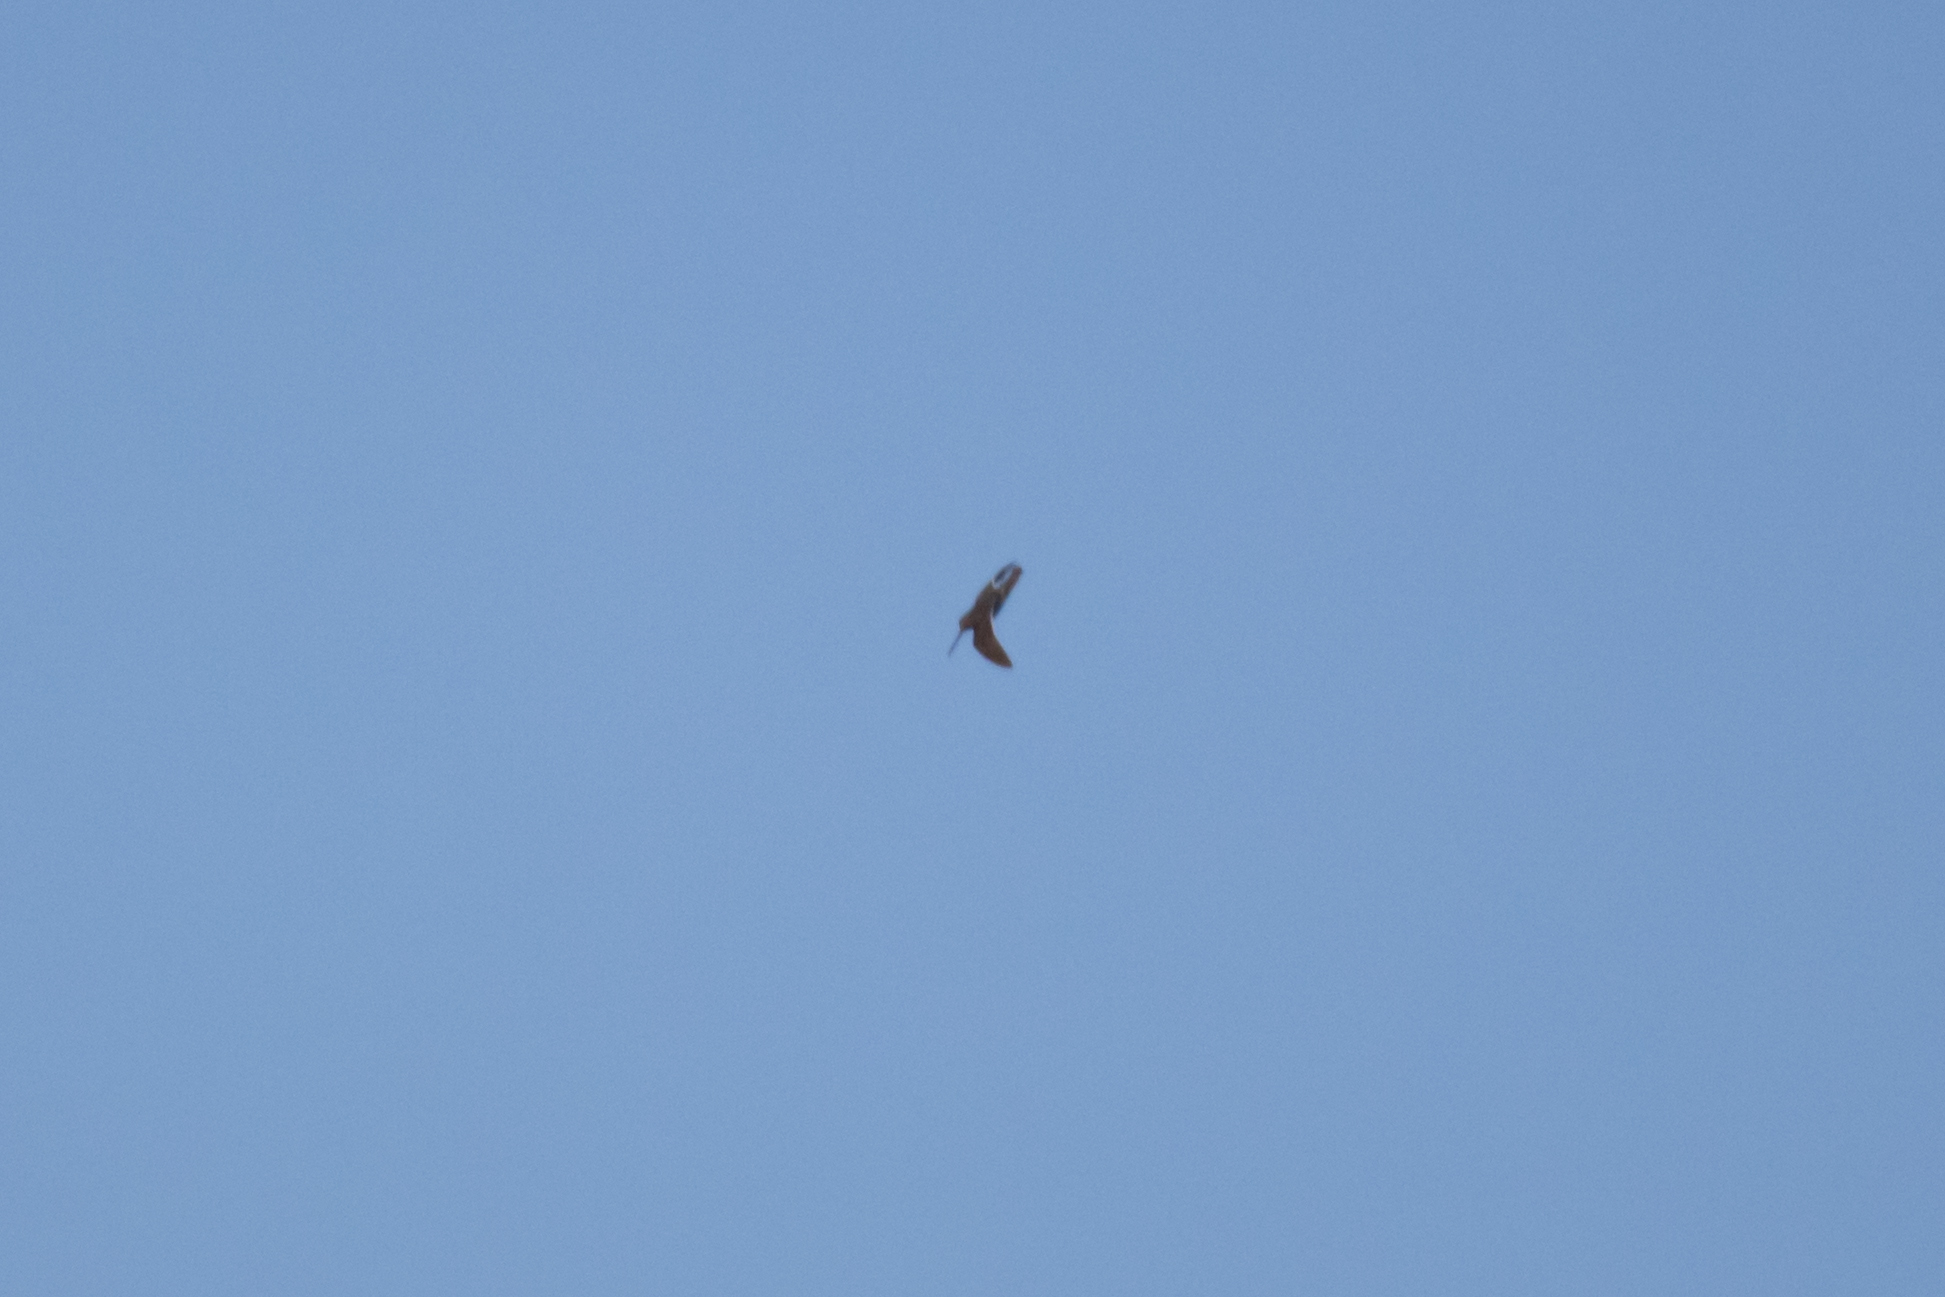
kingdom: Animalia
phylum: Chordata
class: Aves
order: Charadriiformes
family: Scolopacidae
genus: Gallinago
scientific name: Gallinago gallinago
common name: Common snipe
